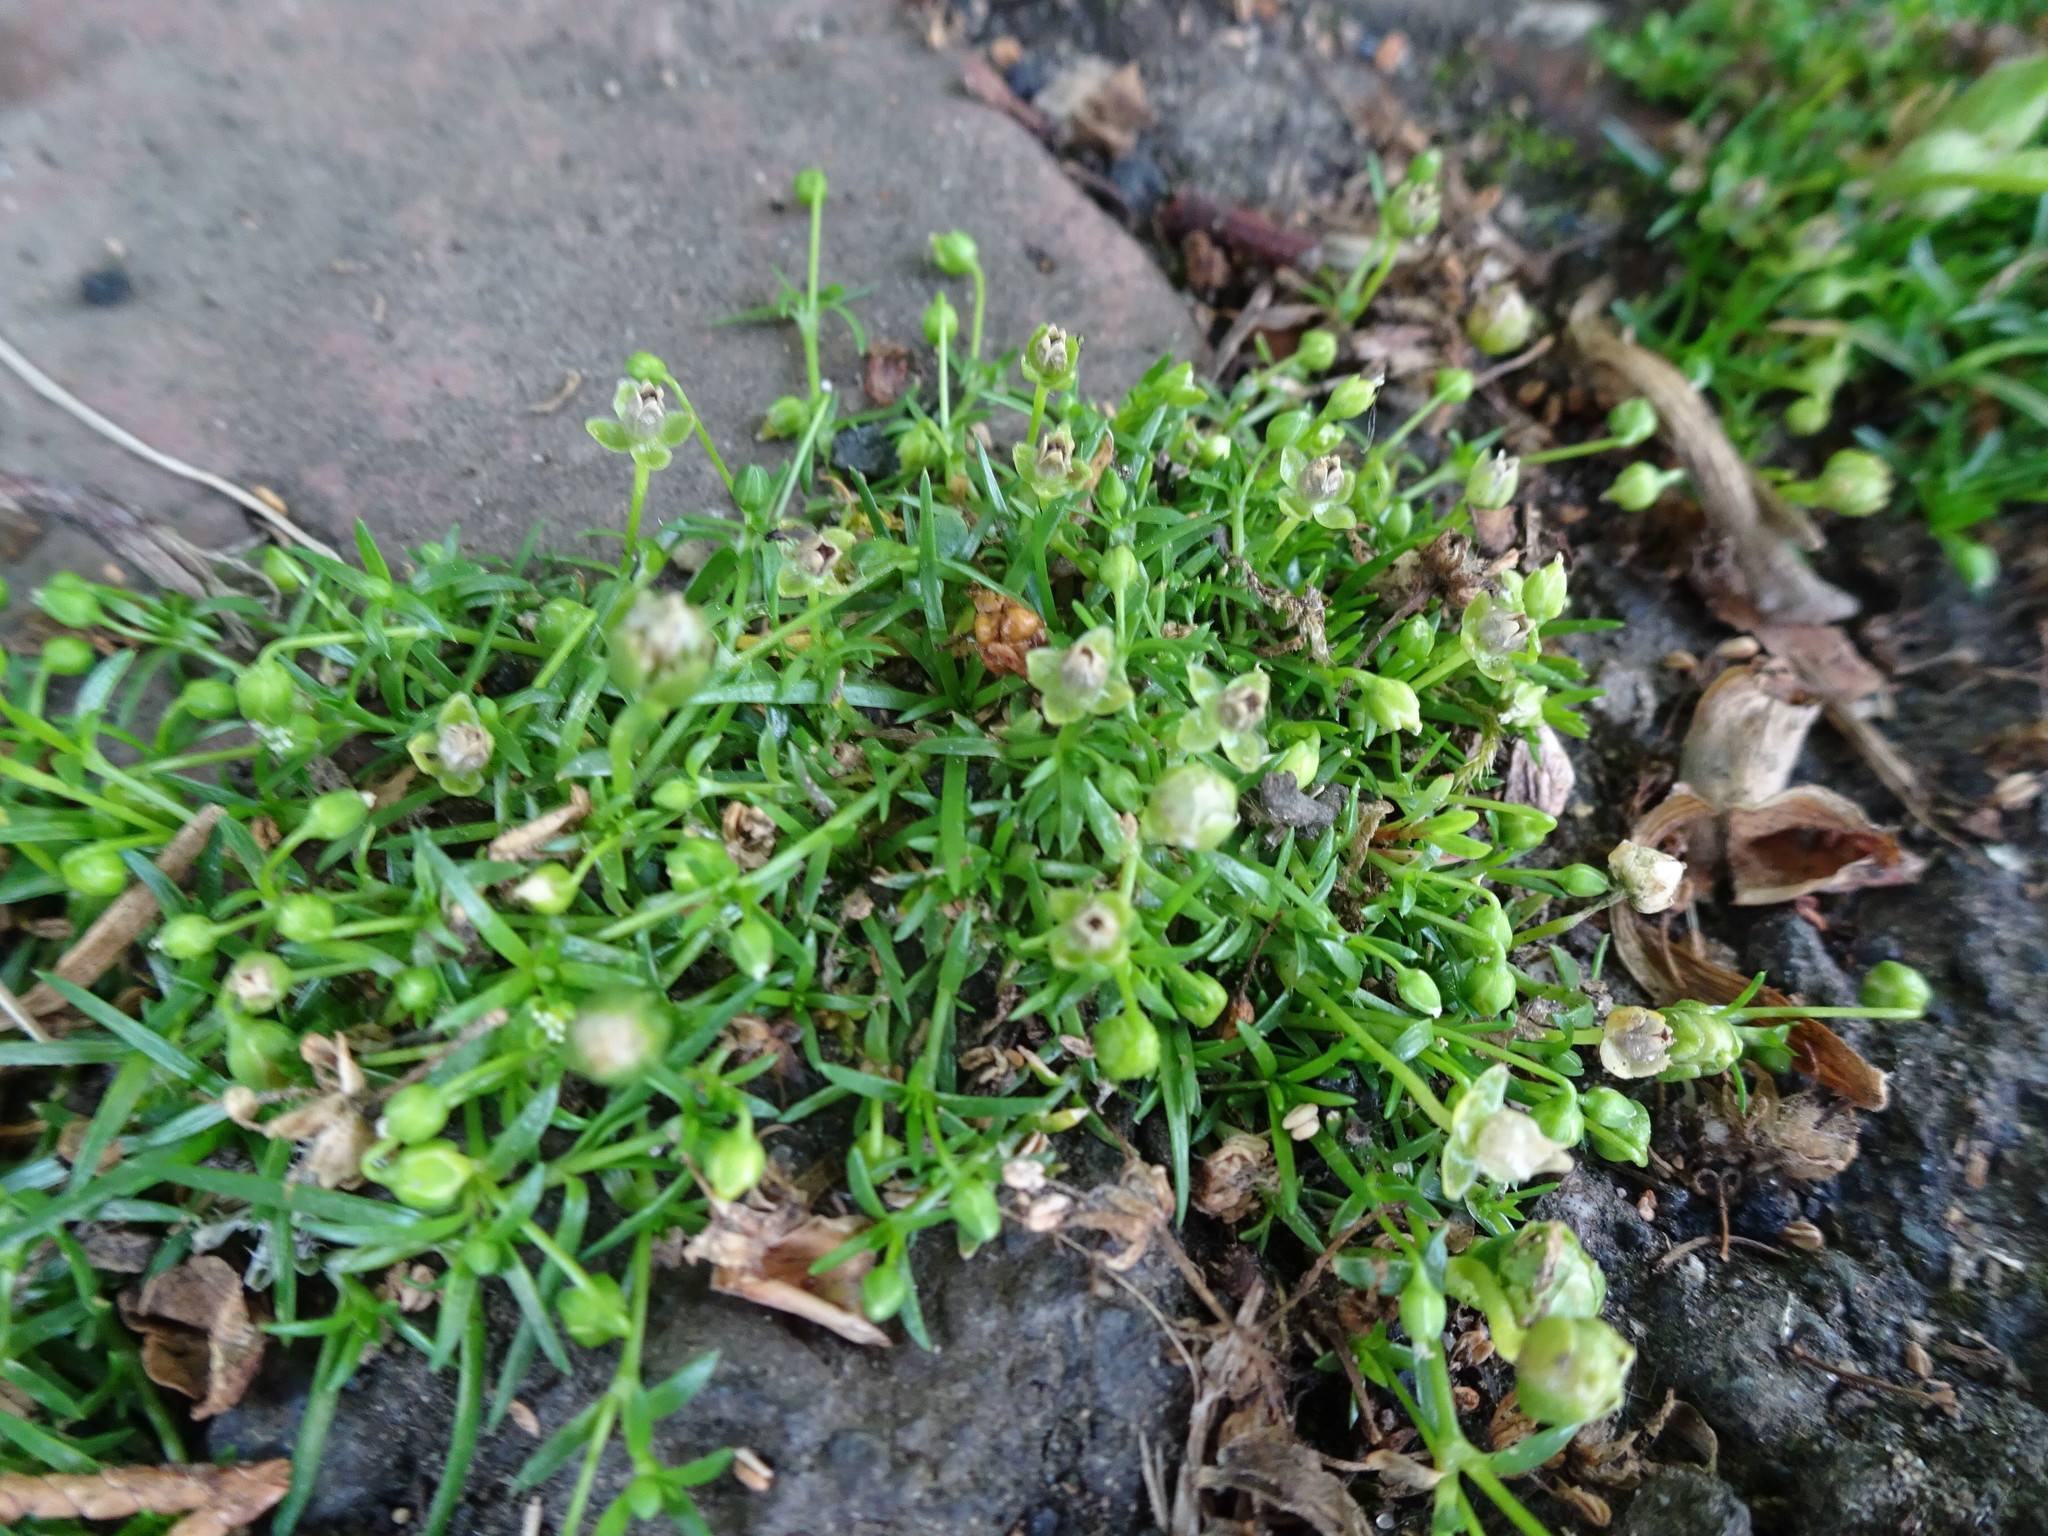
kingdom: Plantae
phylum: Tracheophyta
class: Magnoliopsida
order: Caryophyllales
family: Caryophyllaceae
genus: Sagina
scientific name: Sagina procumbens
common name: Procumbent pearlwort
